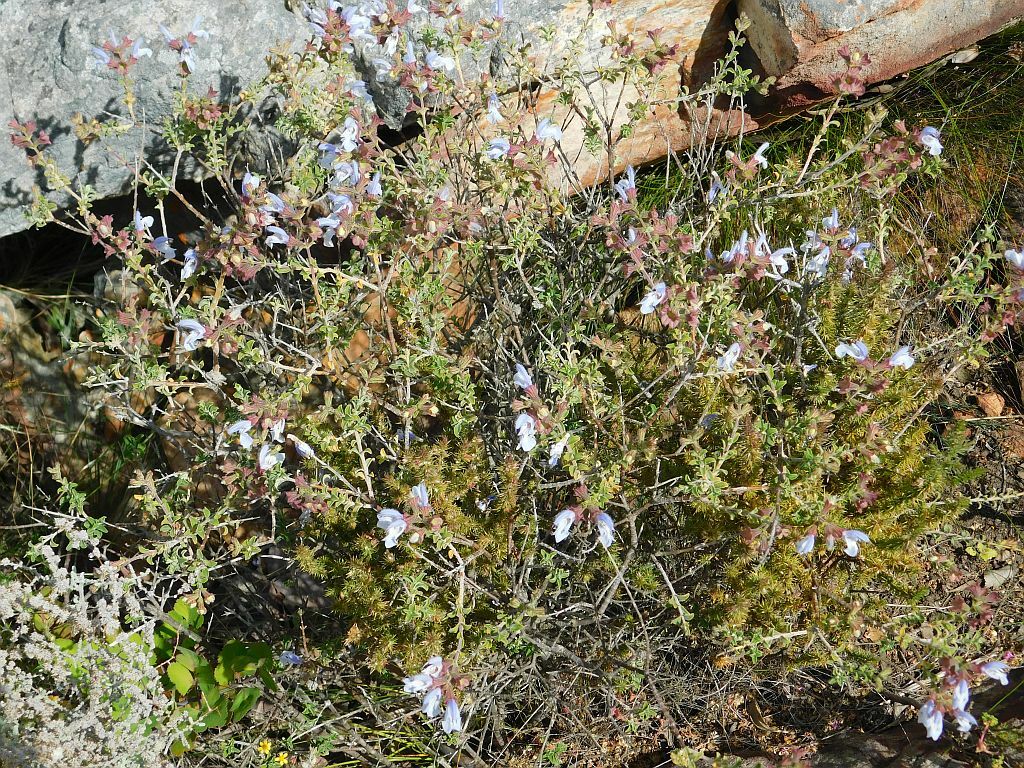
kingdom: Plantae
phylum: Tracheophyta
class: Magnoliopsida
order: Lamiales
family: Lamiaceae
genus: Salvia
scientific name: Salvia africana
